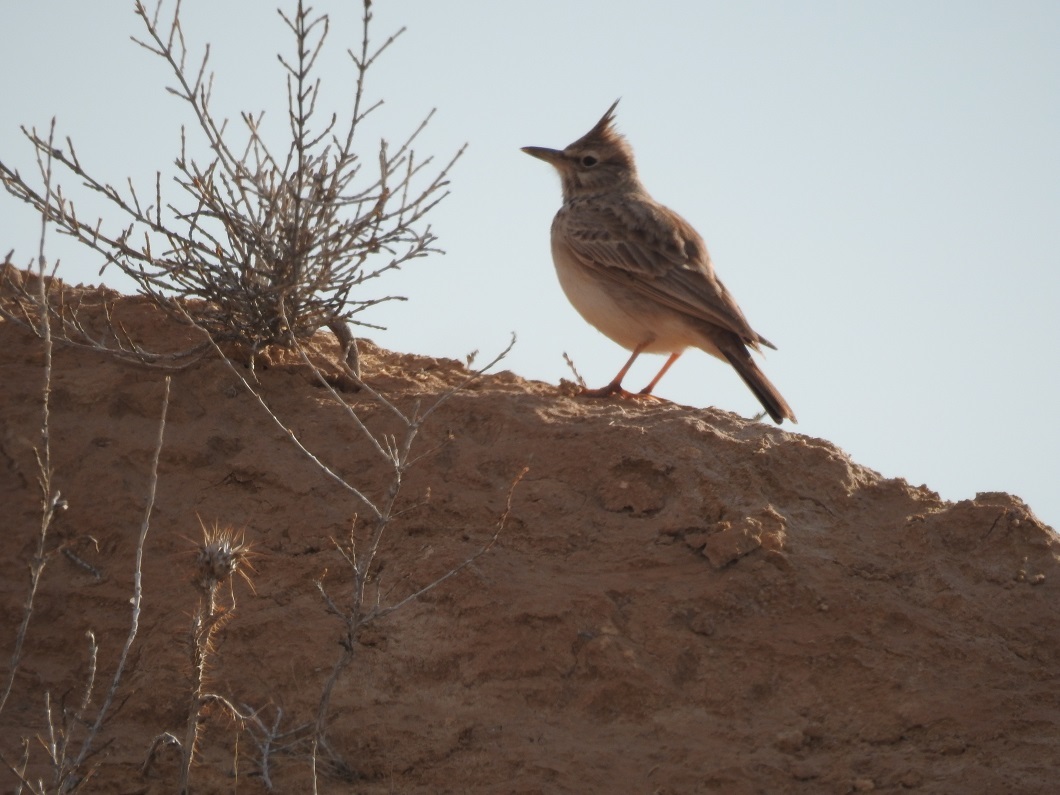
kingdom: Animalia
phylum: Chordata
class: Aves
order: Passeriformes
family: Alaudidae
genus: Galerida
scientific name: Galerida cristata
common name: Crested lark
